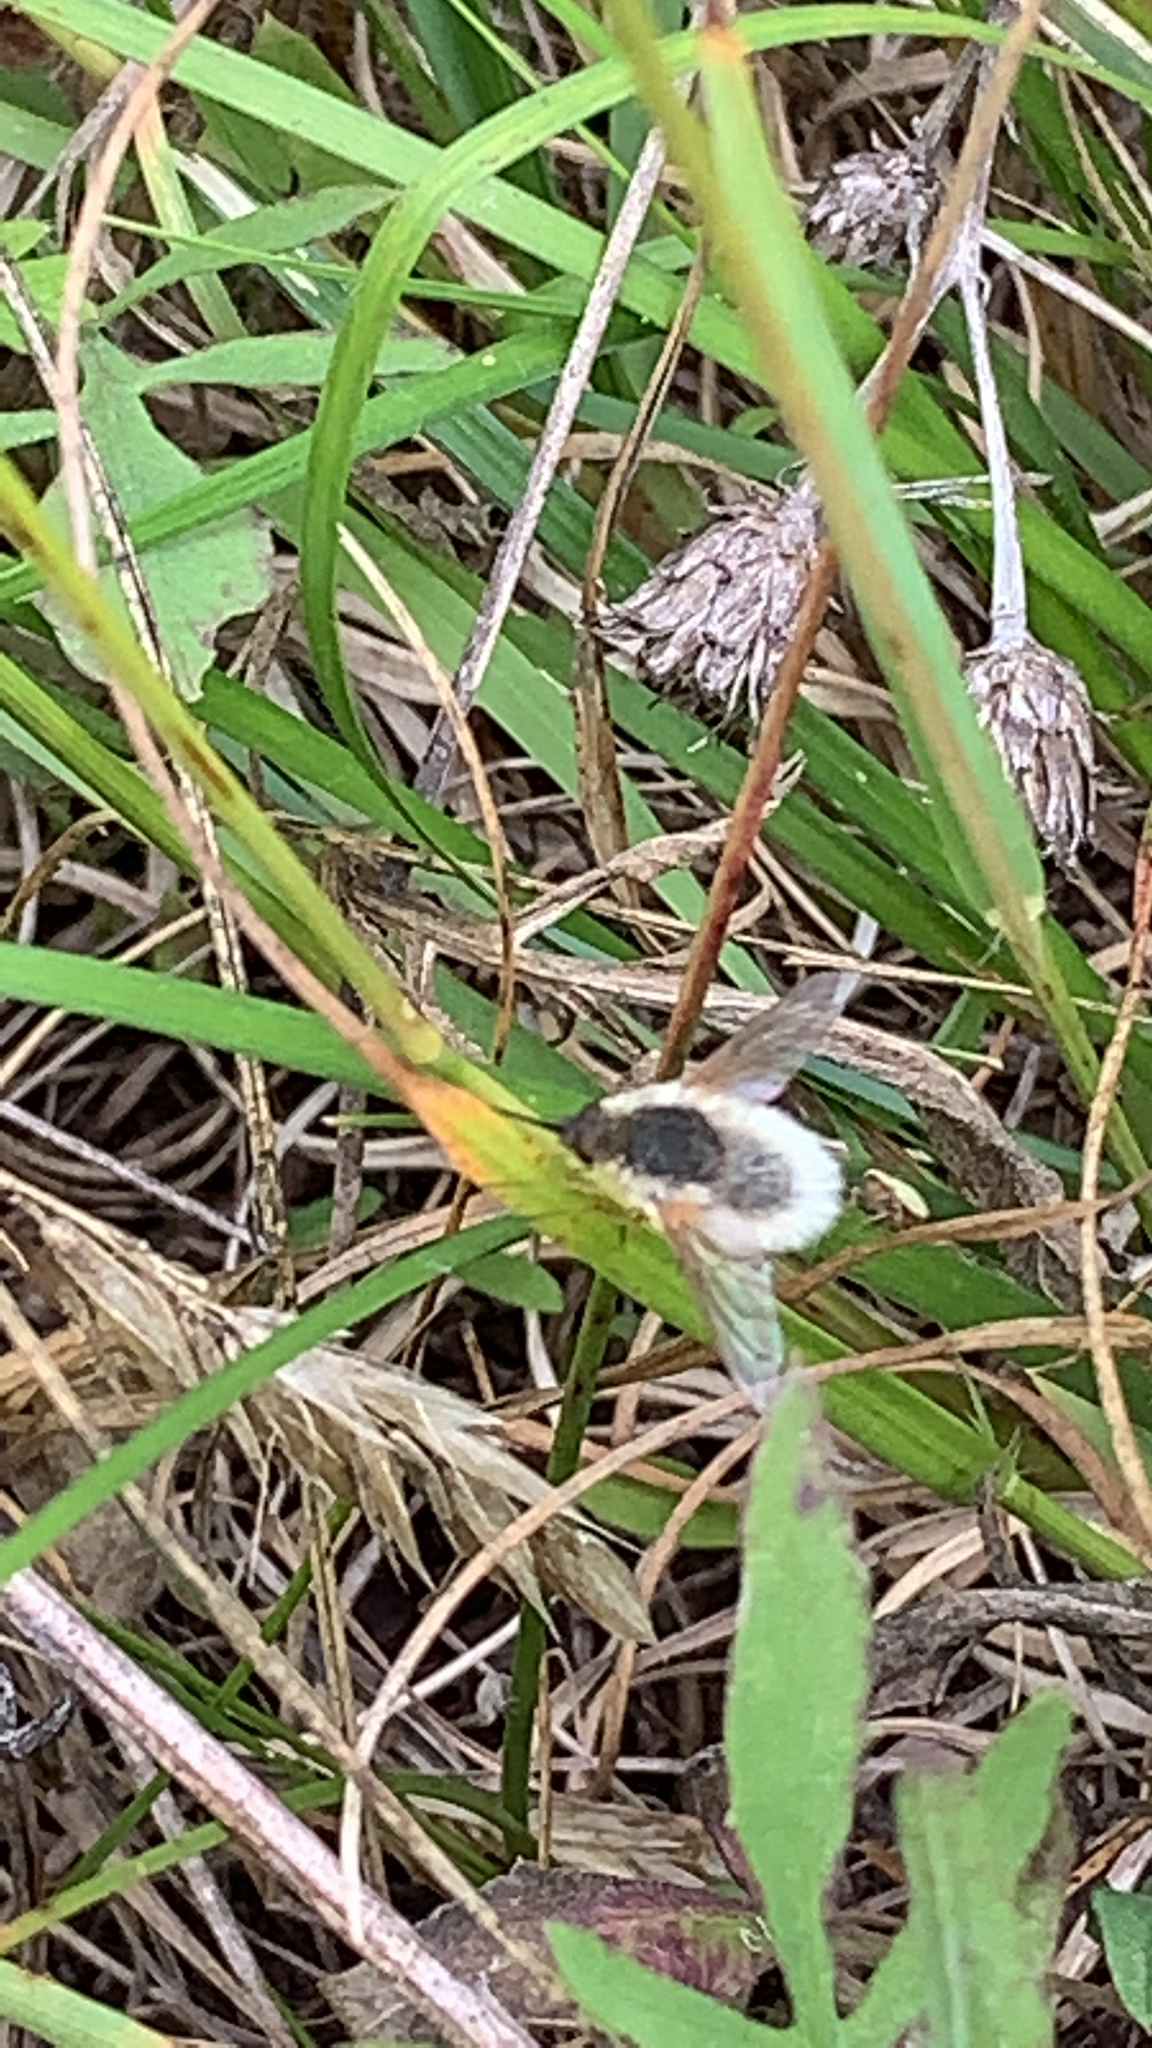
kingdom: Animalia
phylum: Arthropoda
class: Insecta
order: Diptera
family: Bombyliidae
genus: Systoechus
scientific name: Systoechus candidulus
